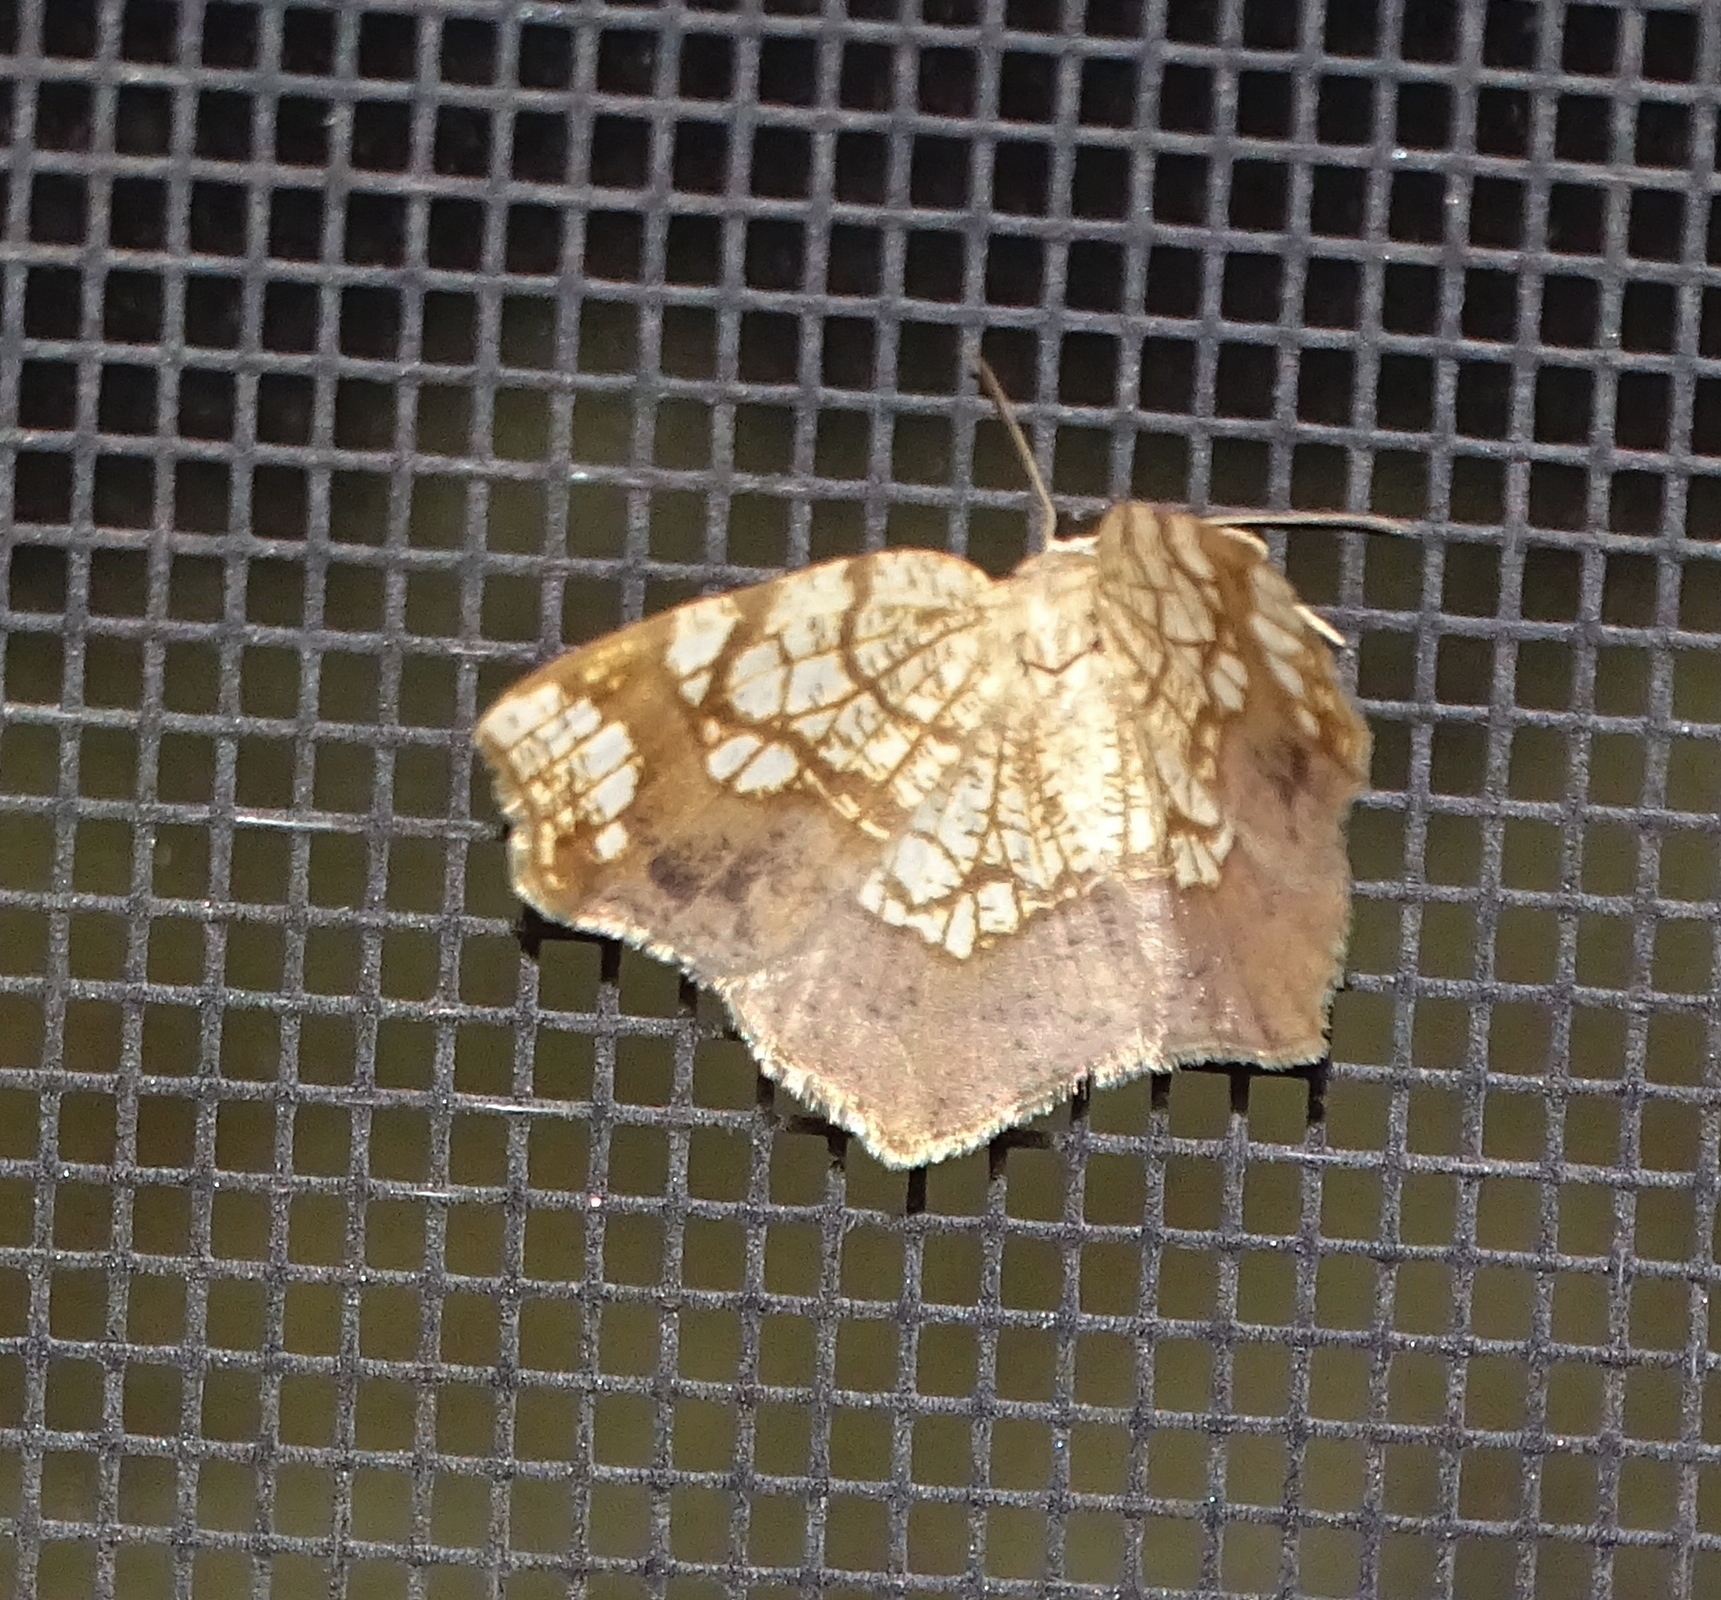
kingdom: Animalia
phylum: Arthropoda
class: Insecta
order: Lepidoptera
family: Geometridae
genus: Nematocampa
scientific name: Nematocampa resistaria
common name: Horned spanworm moth
